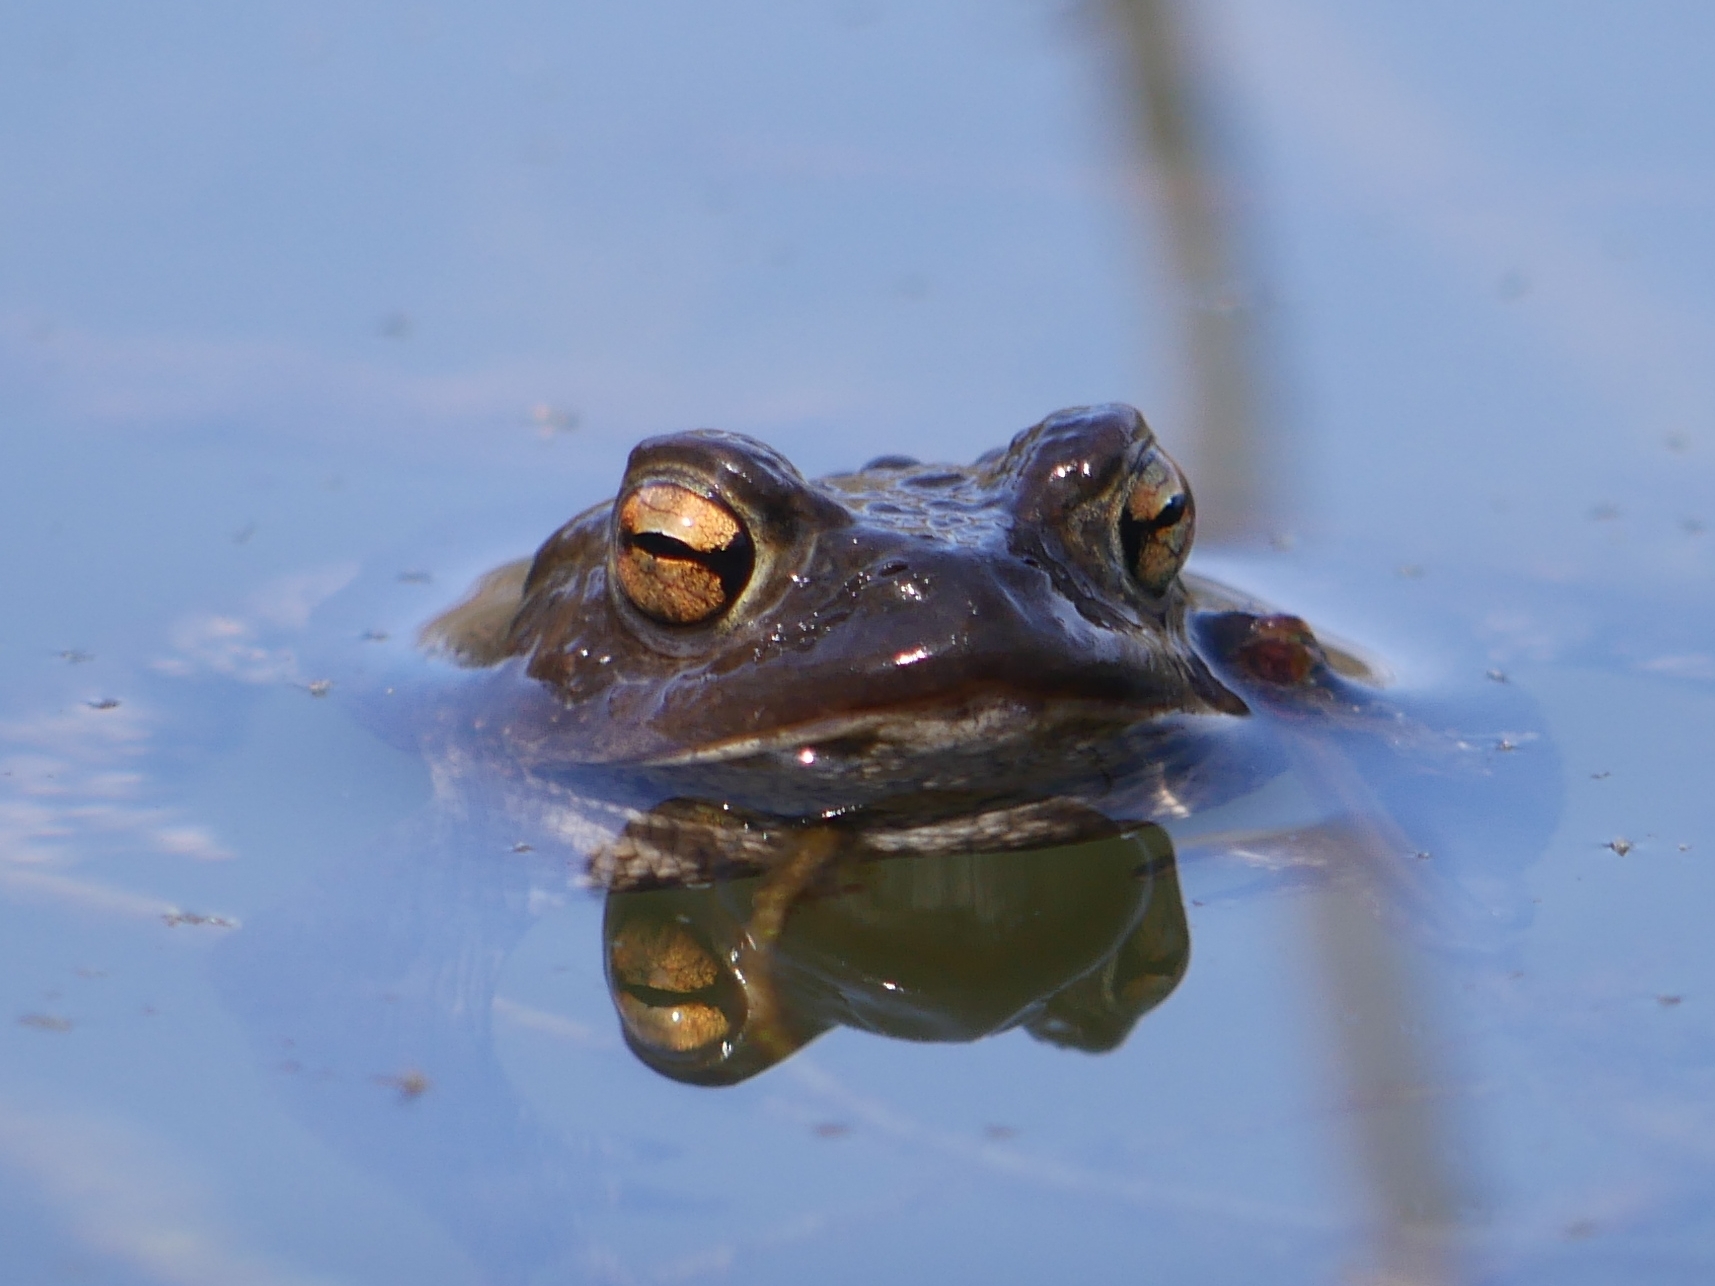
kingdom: Animalia
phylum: Chordata
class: Amphibia
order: Anura
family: Bufonidae
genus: Bufo
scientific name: Bufo bufo
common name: Common toad
